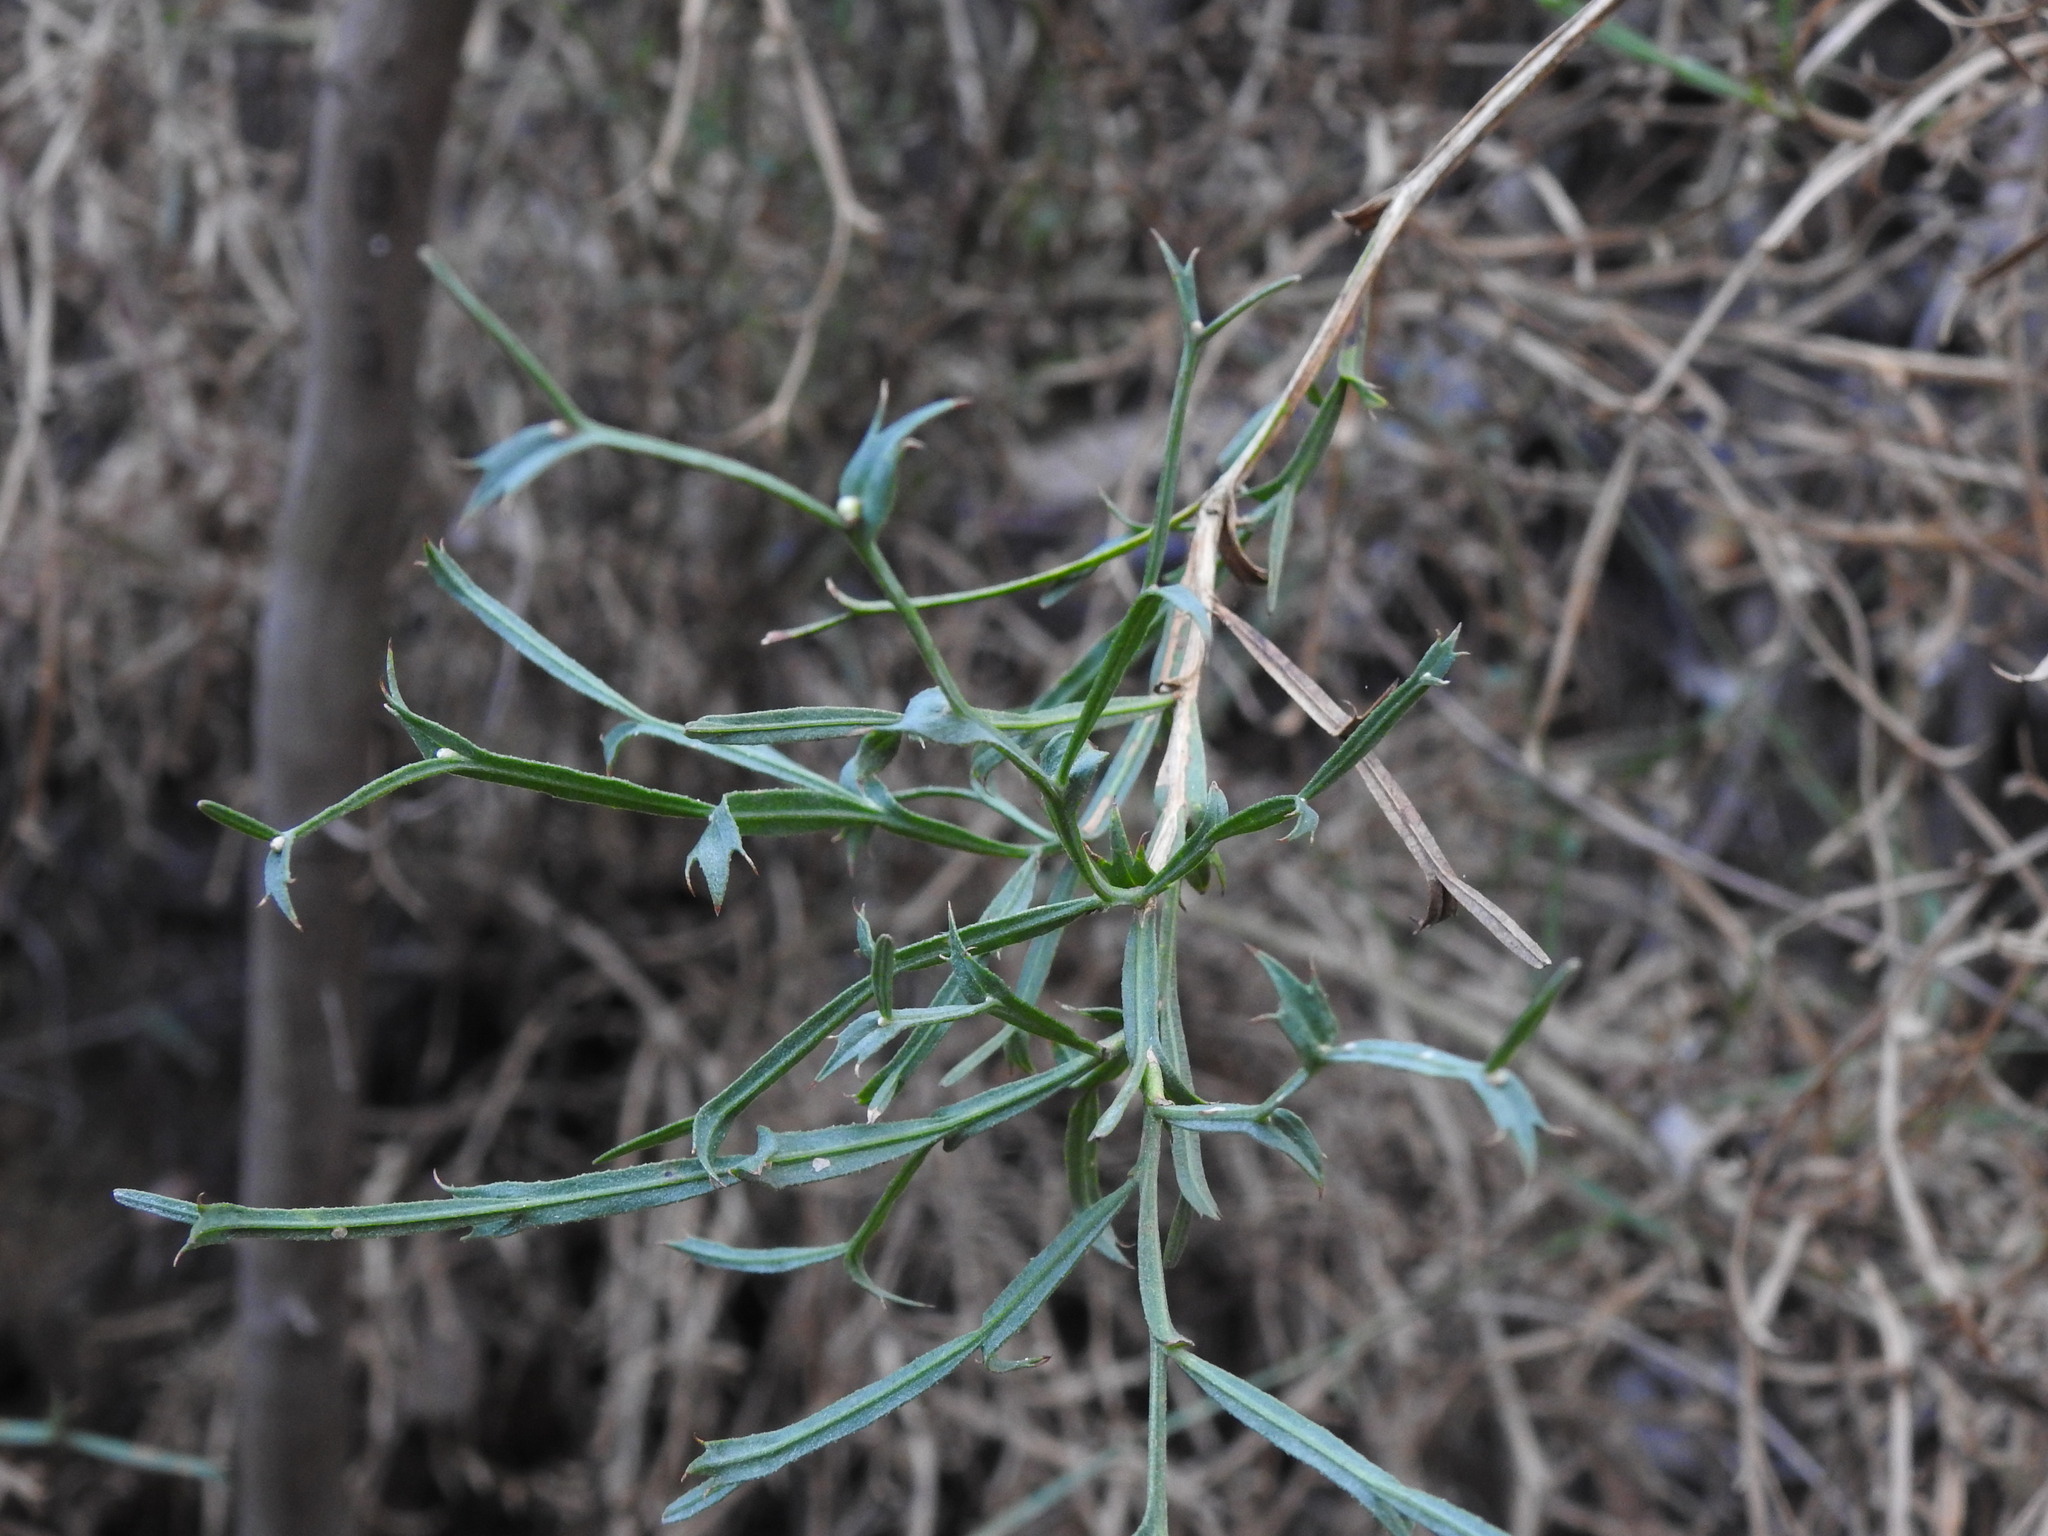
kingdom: Plantae
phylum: Tracheophyta
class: Magnoliopsida
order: Fabales
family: Fabaceae
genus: Genista
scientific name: Genista tridentata
